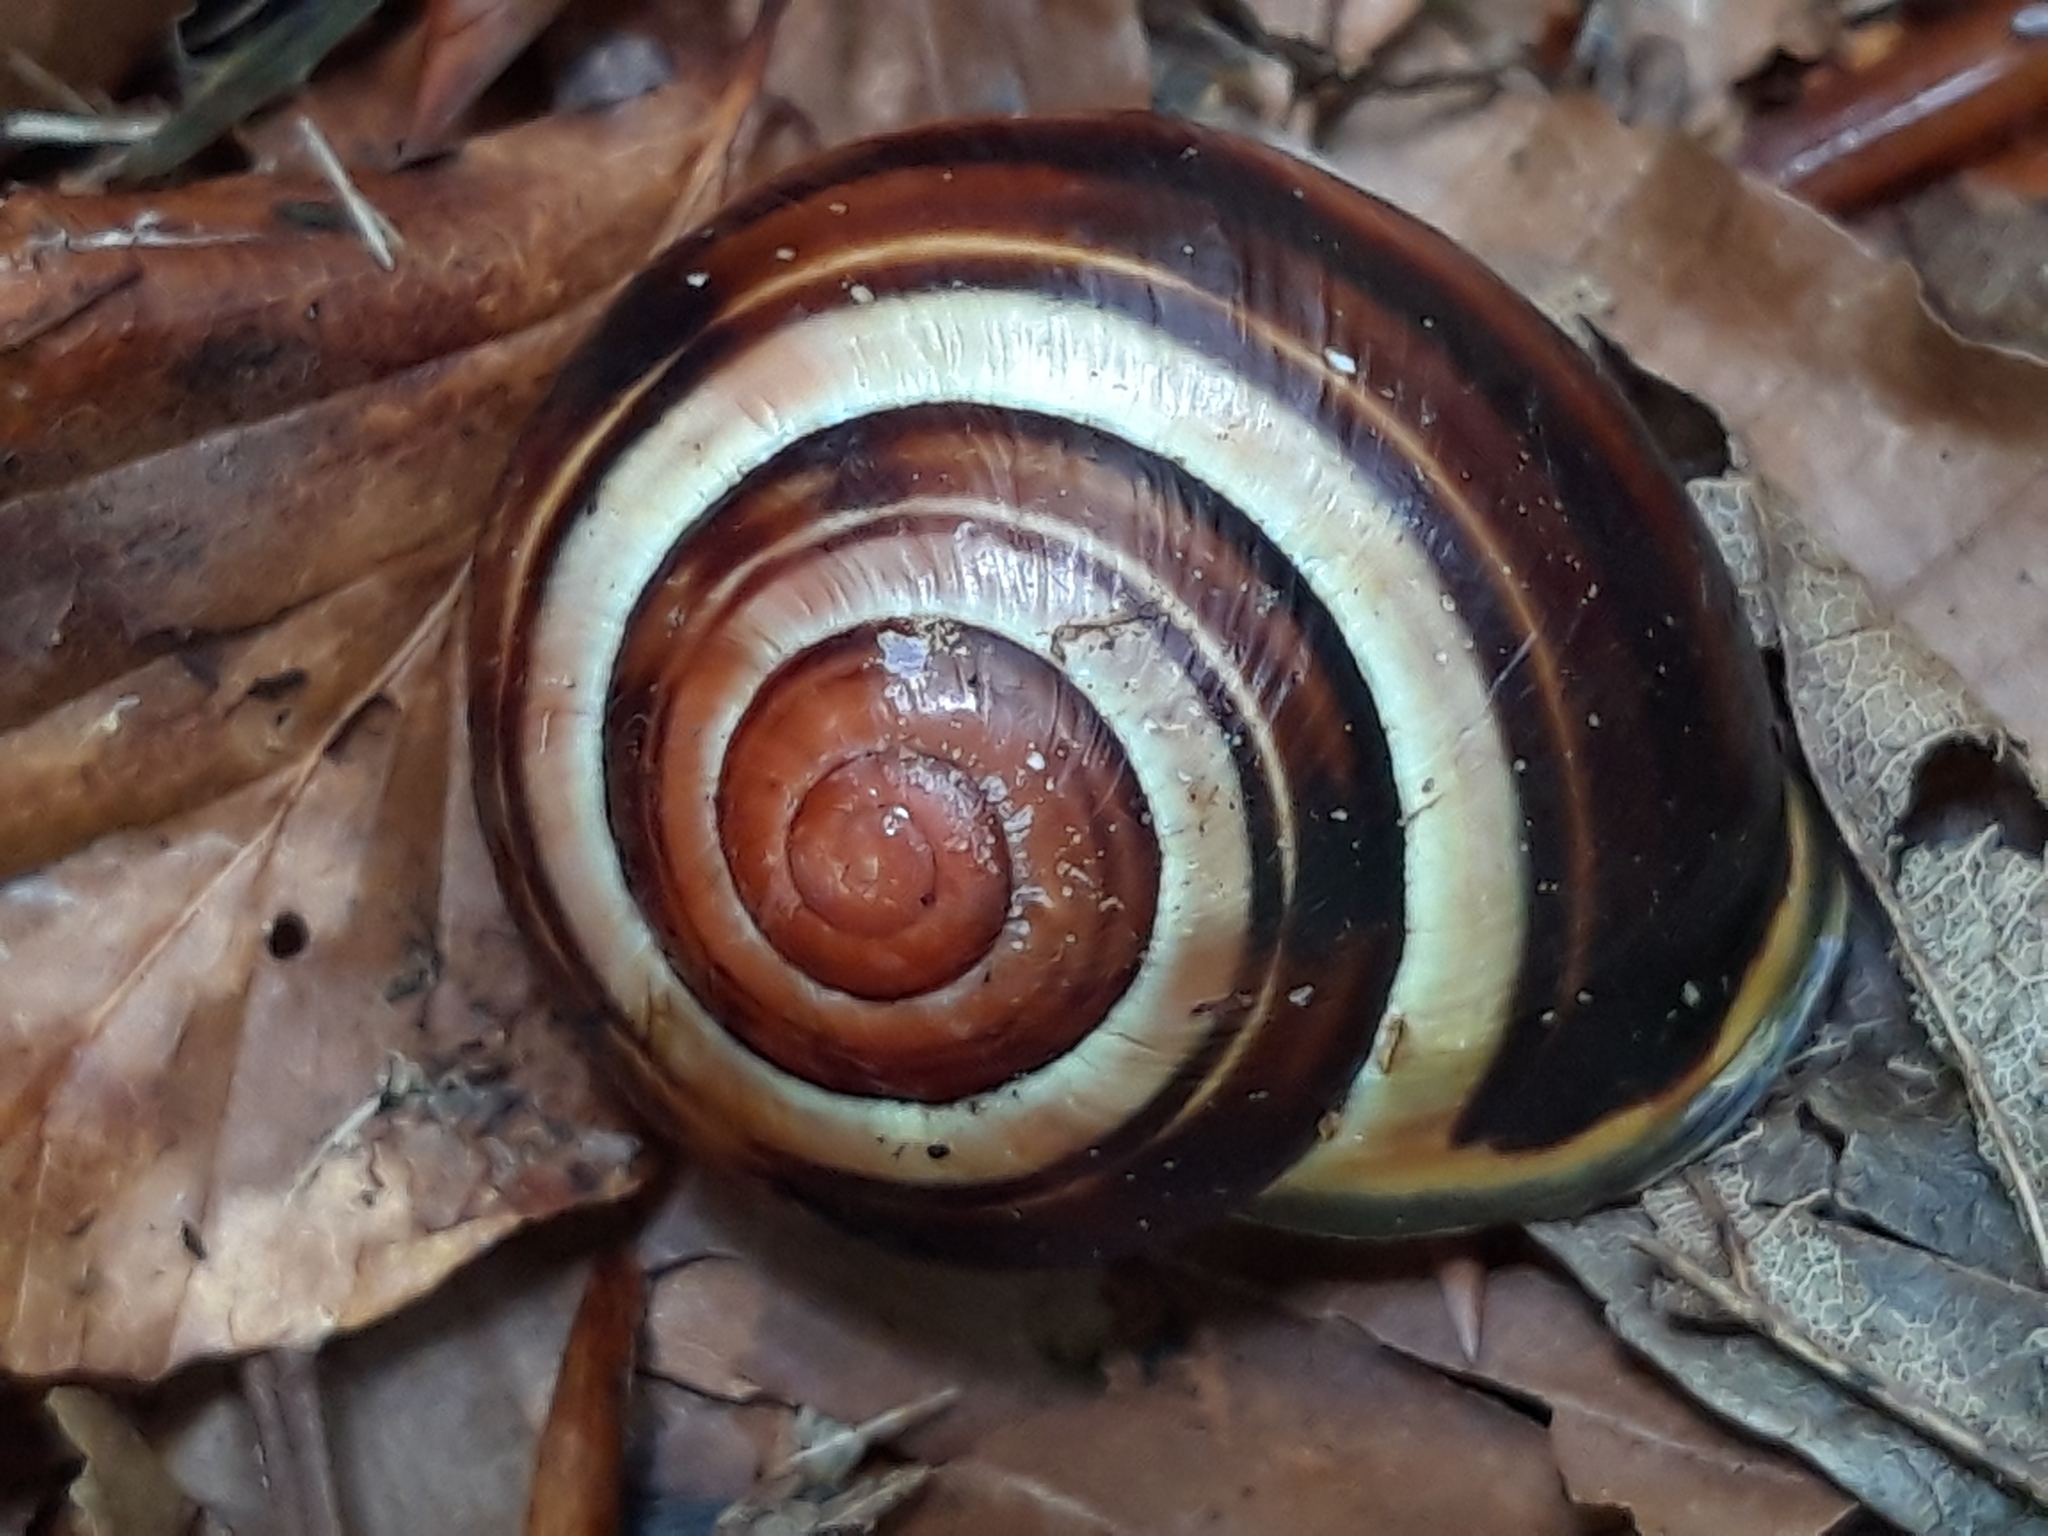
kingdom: Animalia
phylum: Mollusca
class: Gastropoda
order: Stylommatophora
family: Helicidae
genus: Cepaea
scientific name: Cepaea nemoralis
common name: Grovesnail
